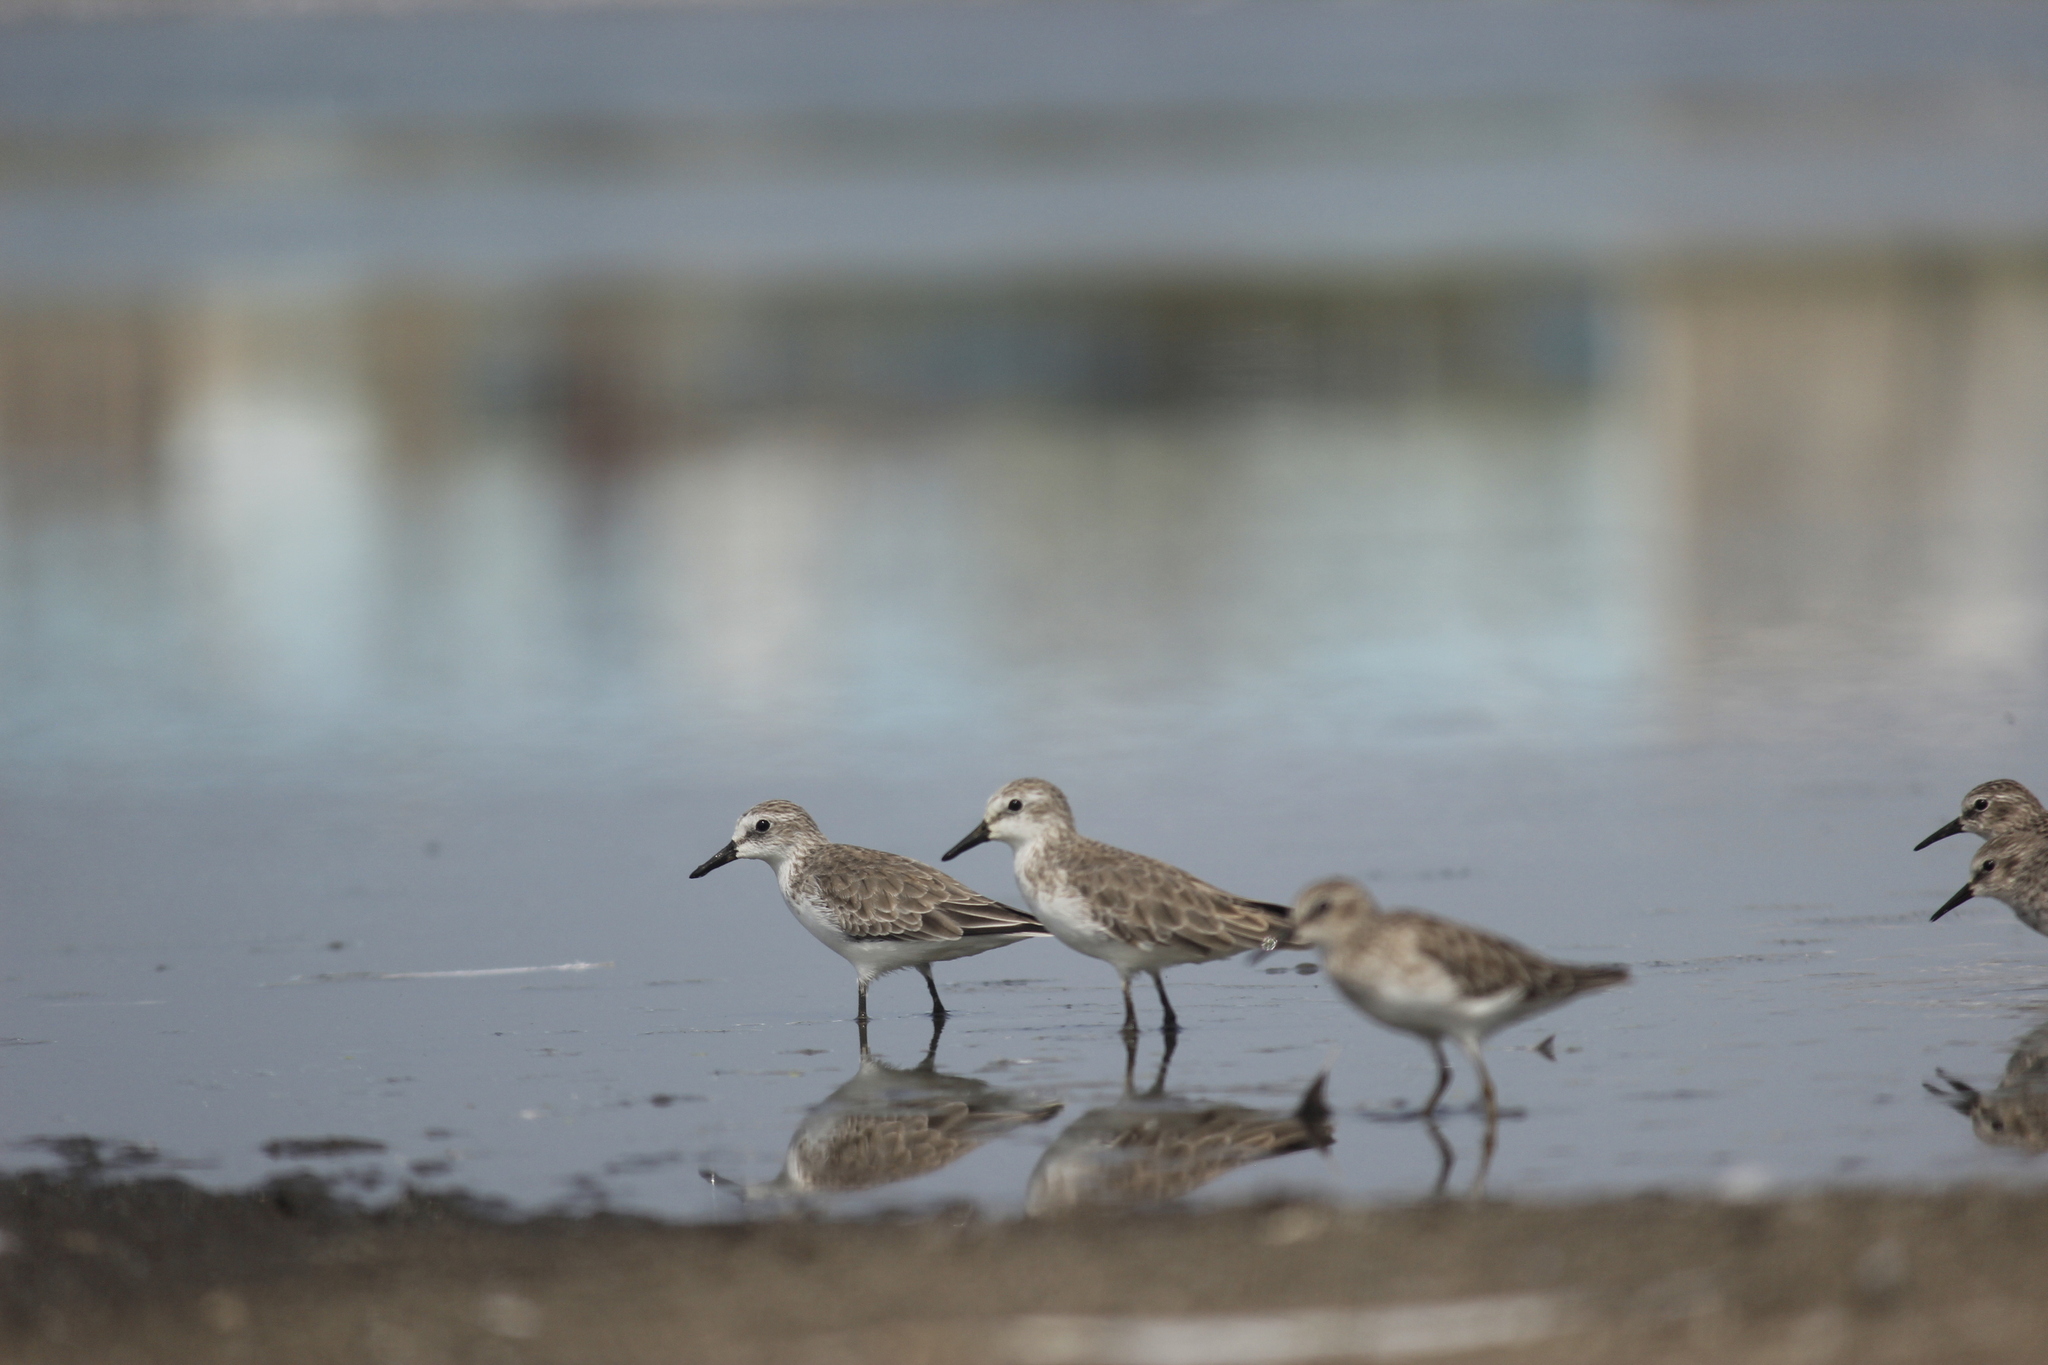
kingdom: Animalia
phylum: Chordata
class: Aves
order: Charadriiformes
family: Scolopacidae
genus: Calidris
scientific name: Calidris pusilla
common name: Semipalmated sandpiper
